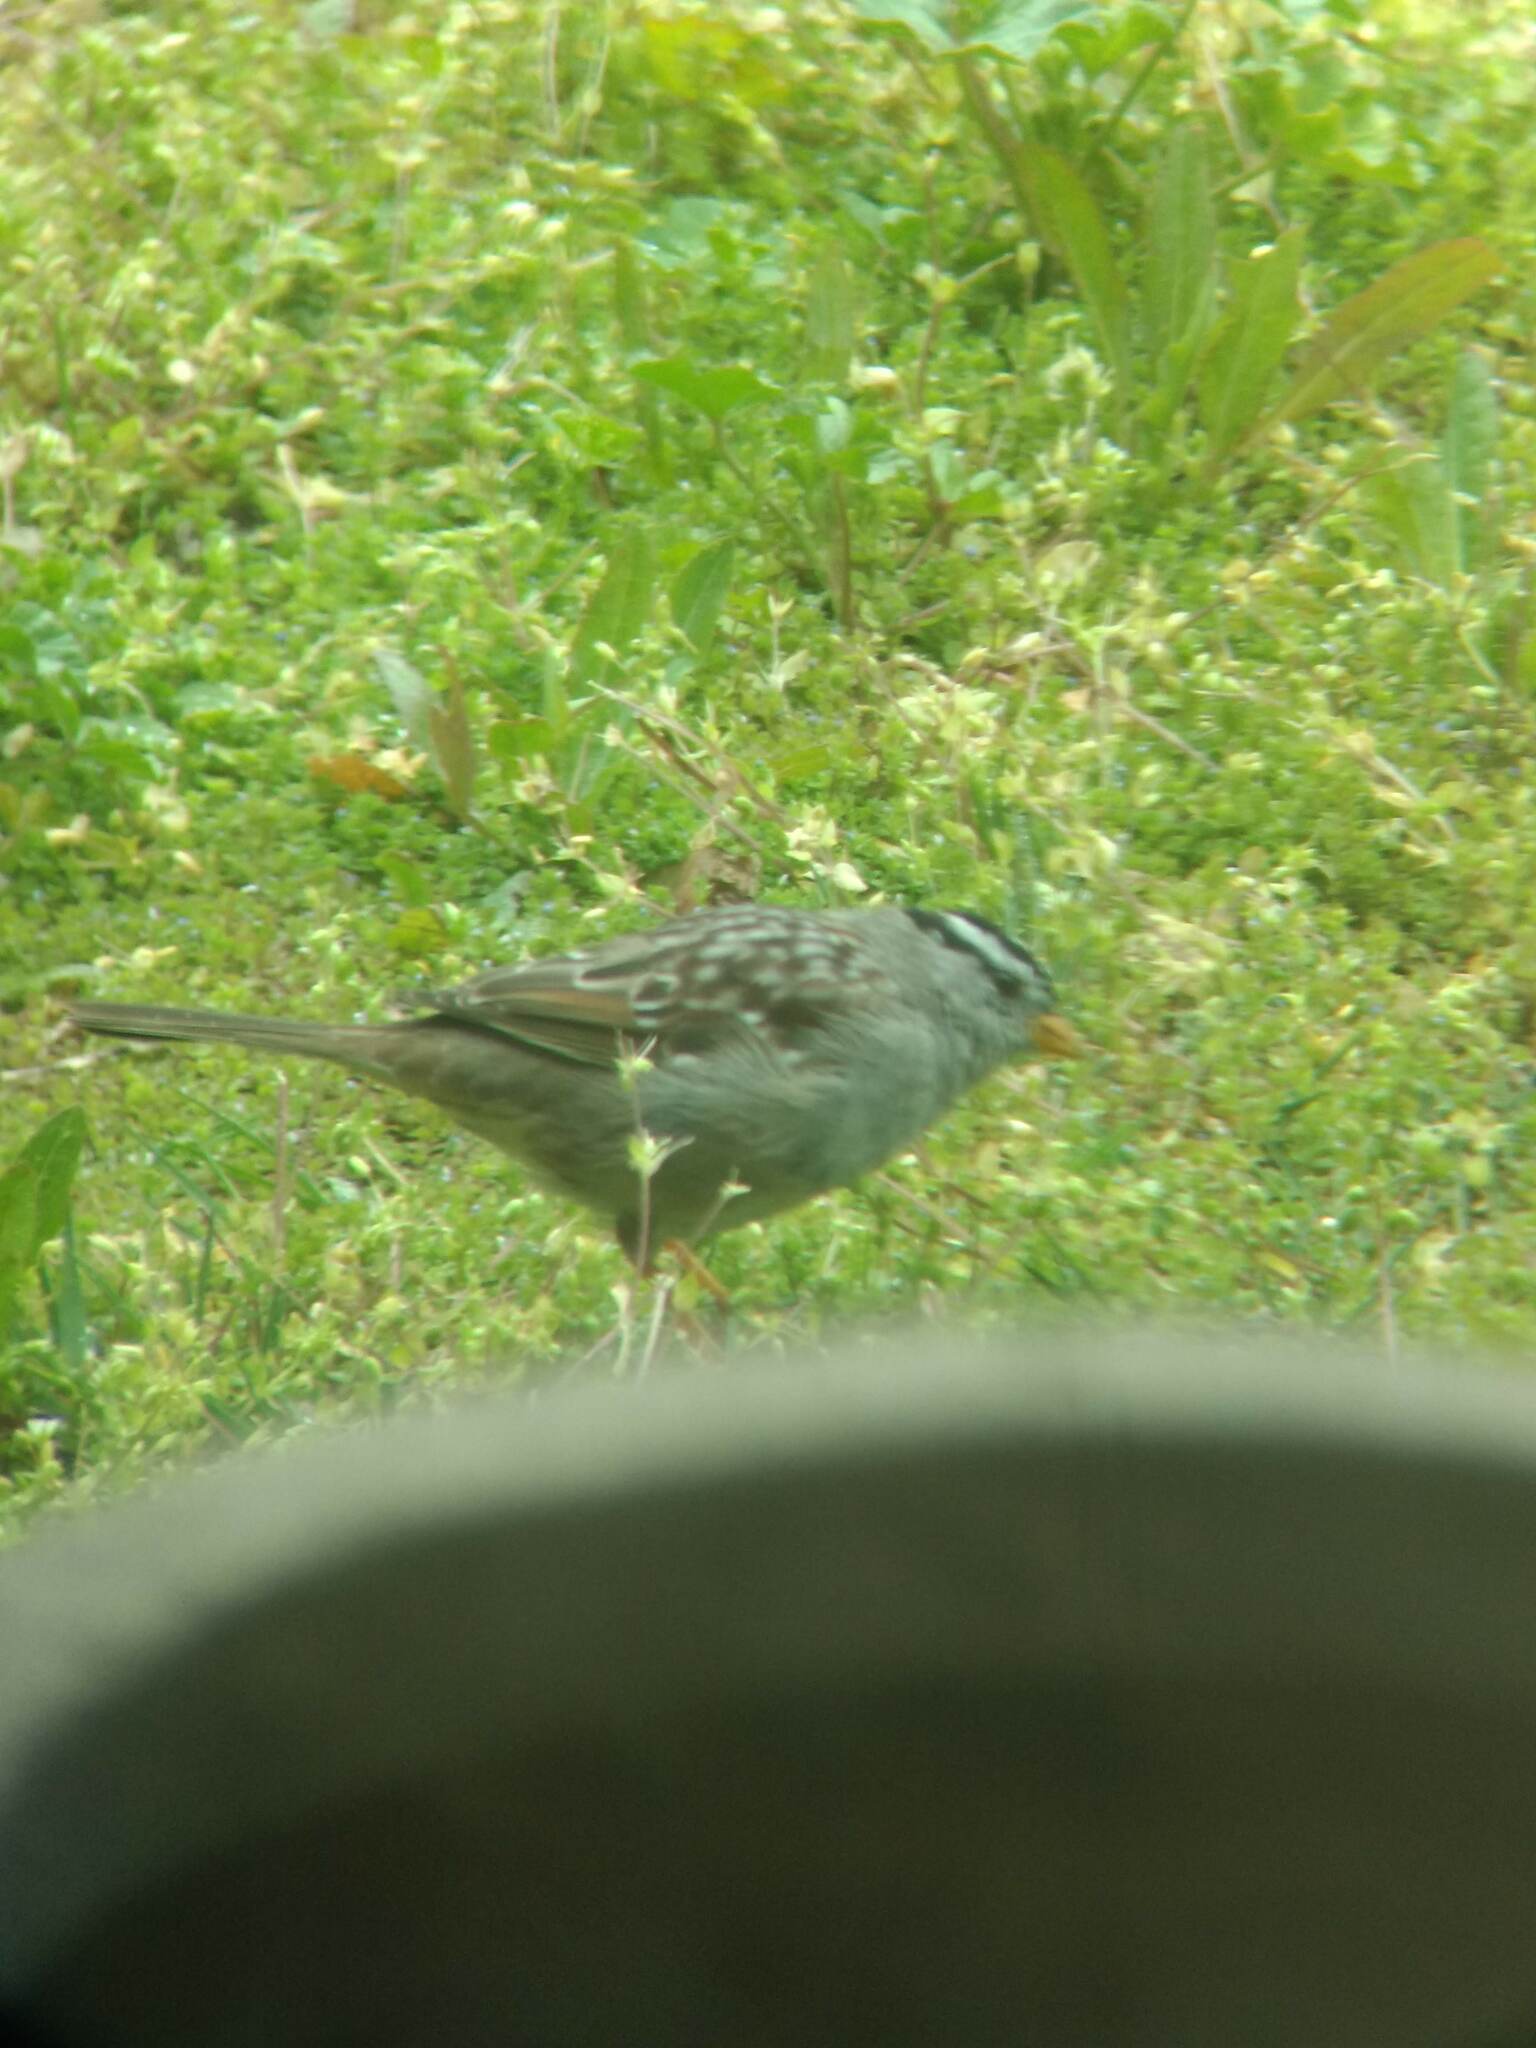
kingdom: Animalia
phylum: Chordata
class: Aves
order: Passeriformes
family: Passerellidae
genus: Zonotrichia
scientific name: Zonotrichia leucophrys
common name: White-crowned sparrow
